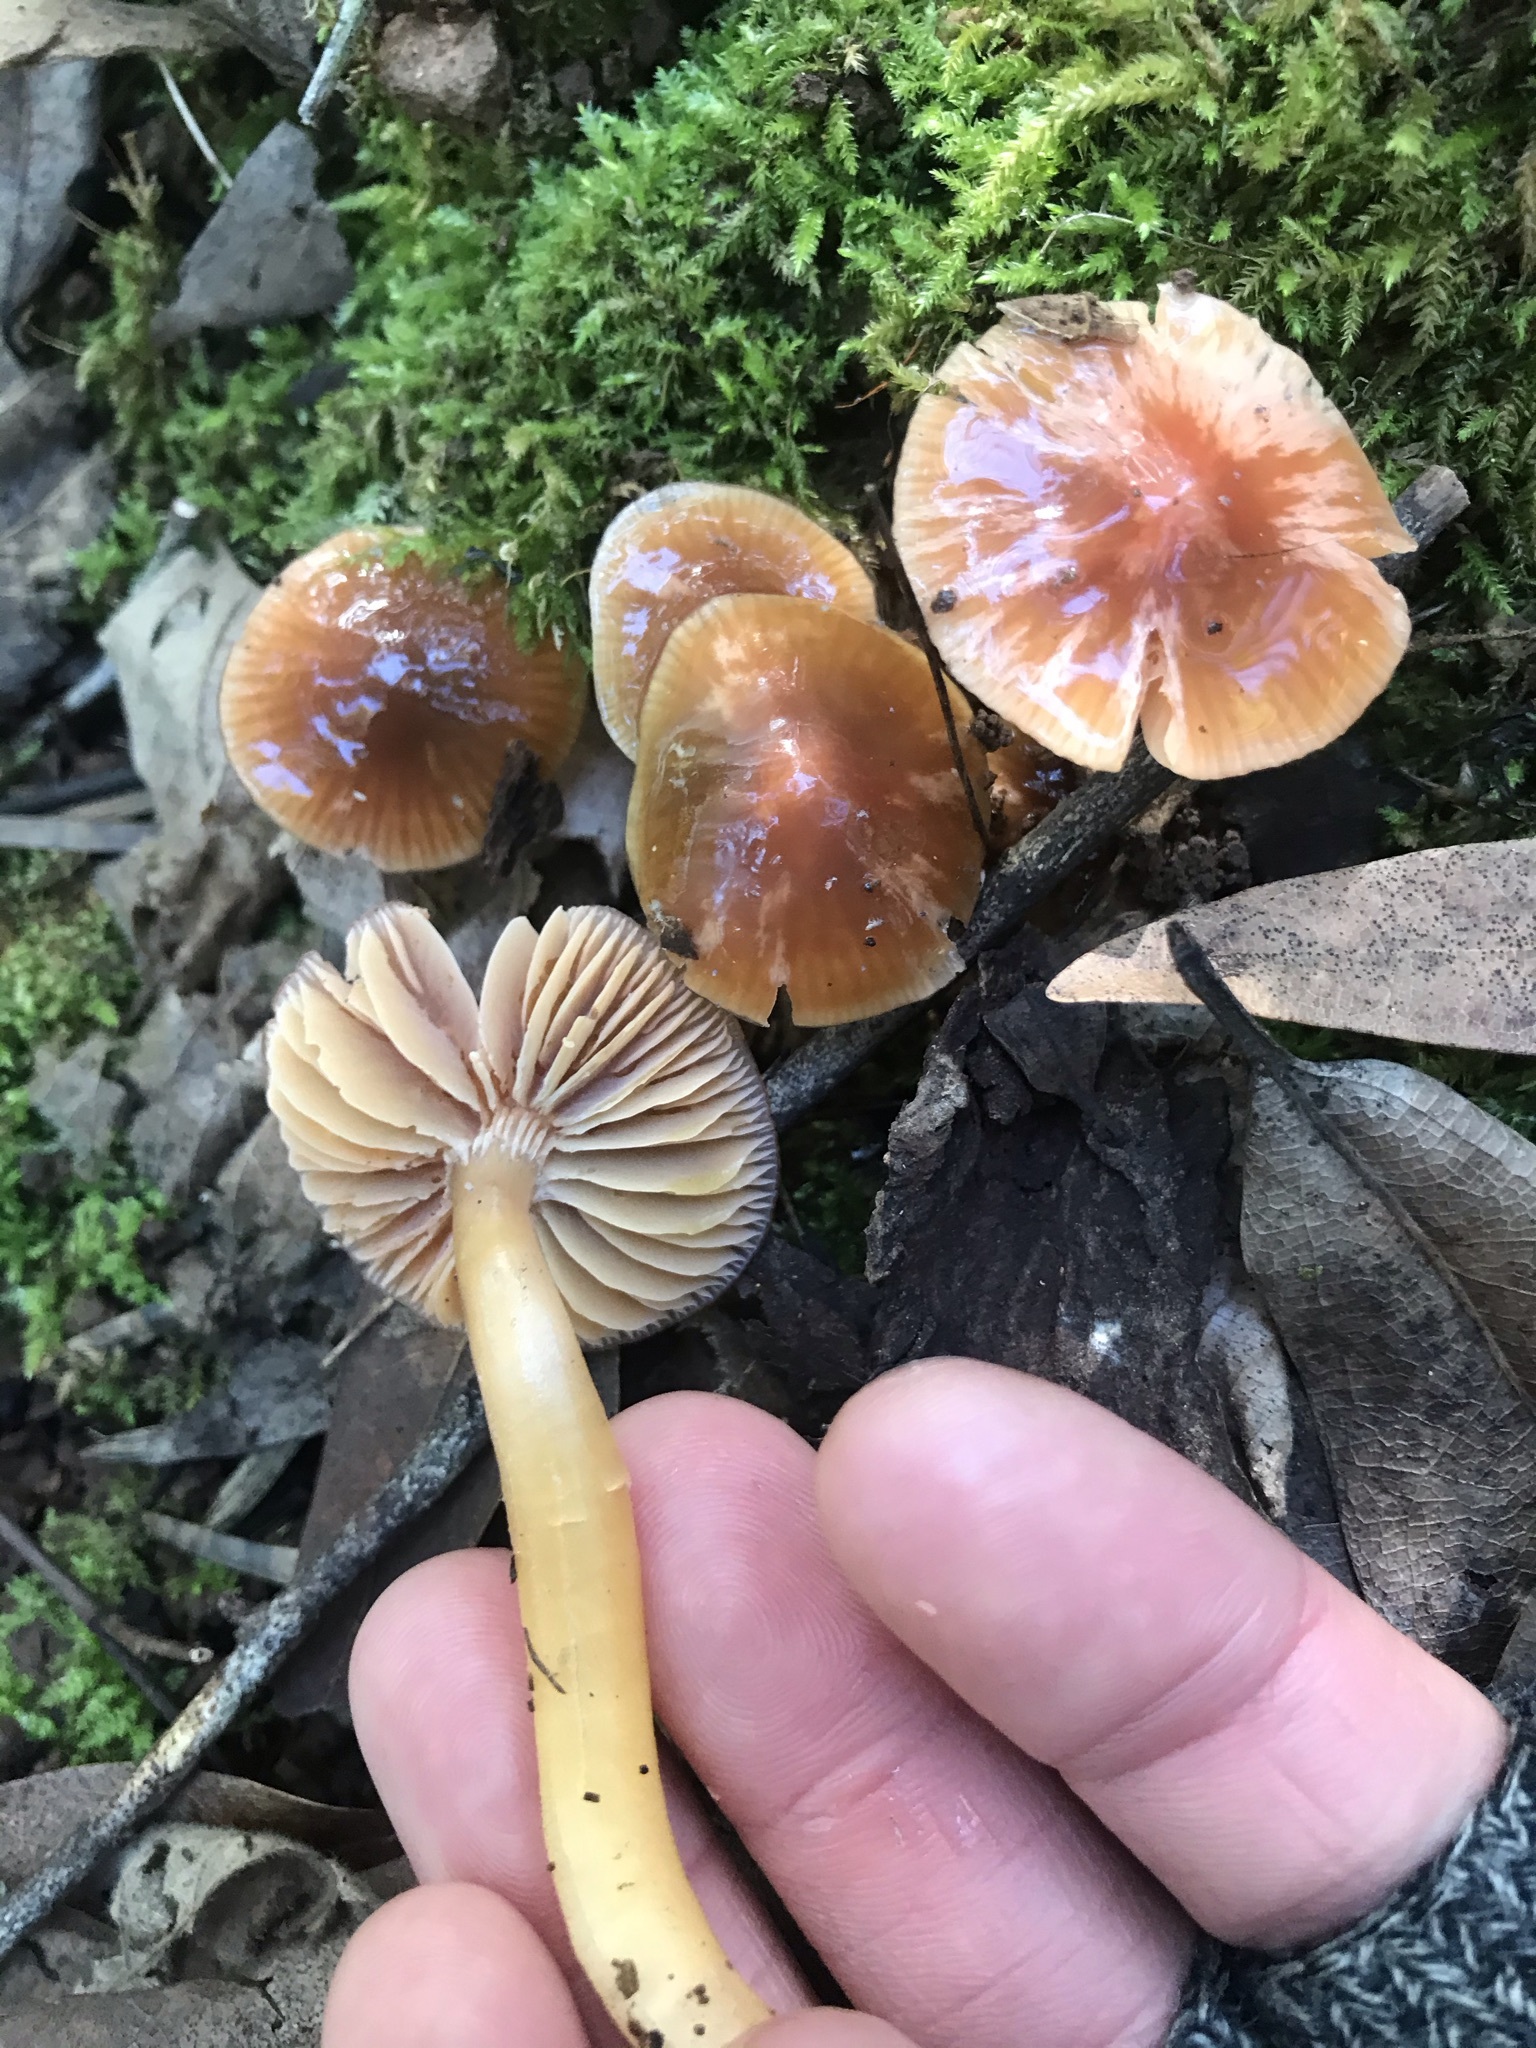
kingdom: Fungi
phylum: Basidiomycota
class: Agaricomycetes
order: Agaricales
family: Hygrophoraceae
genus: Gliophorus
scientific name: Gliophorus psittacinus
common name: Parrot wax-cap
